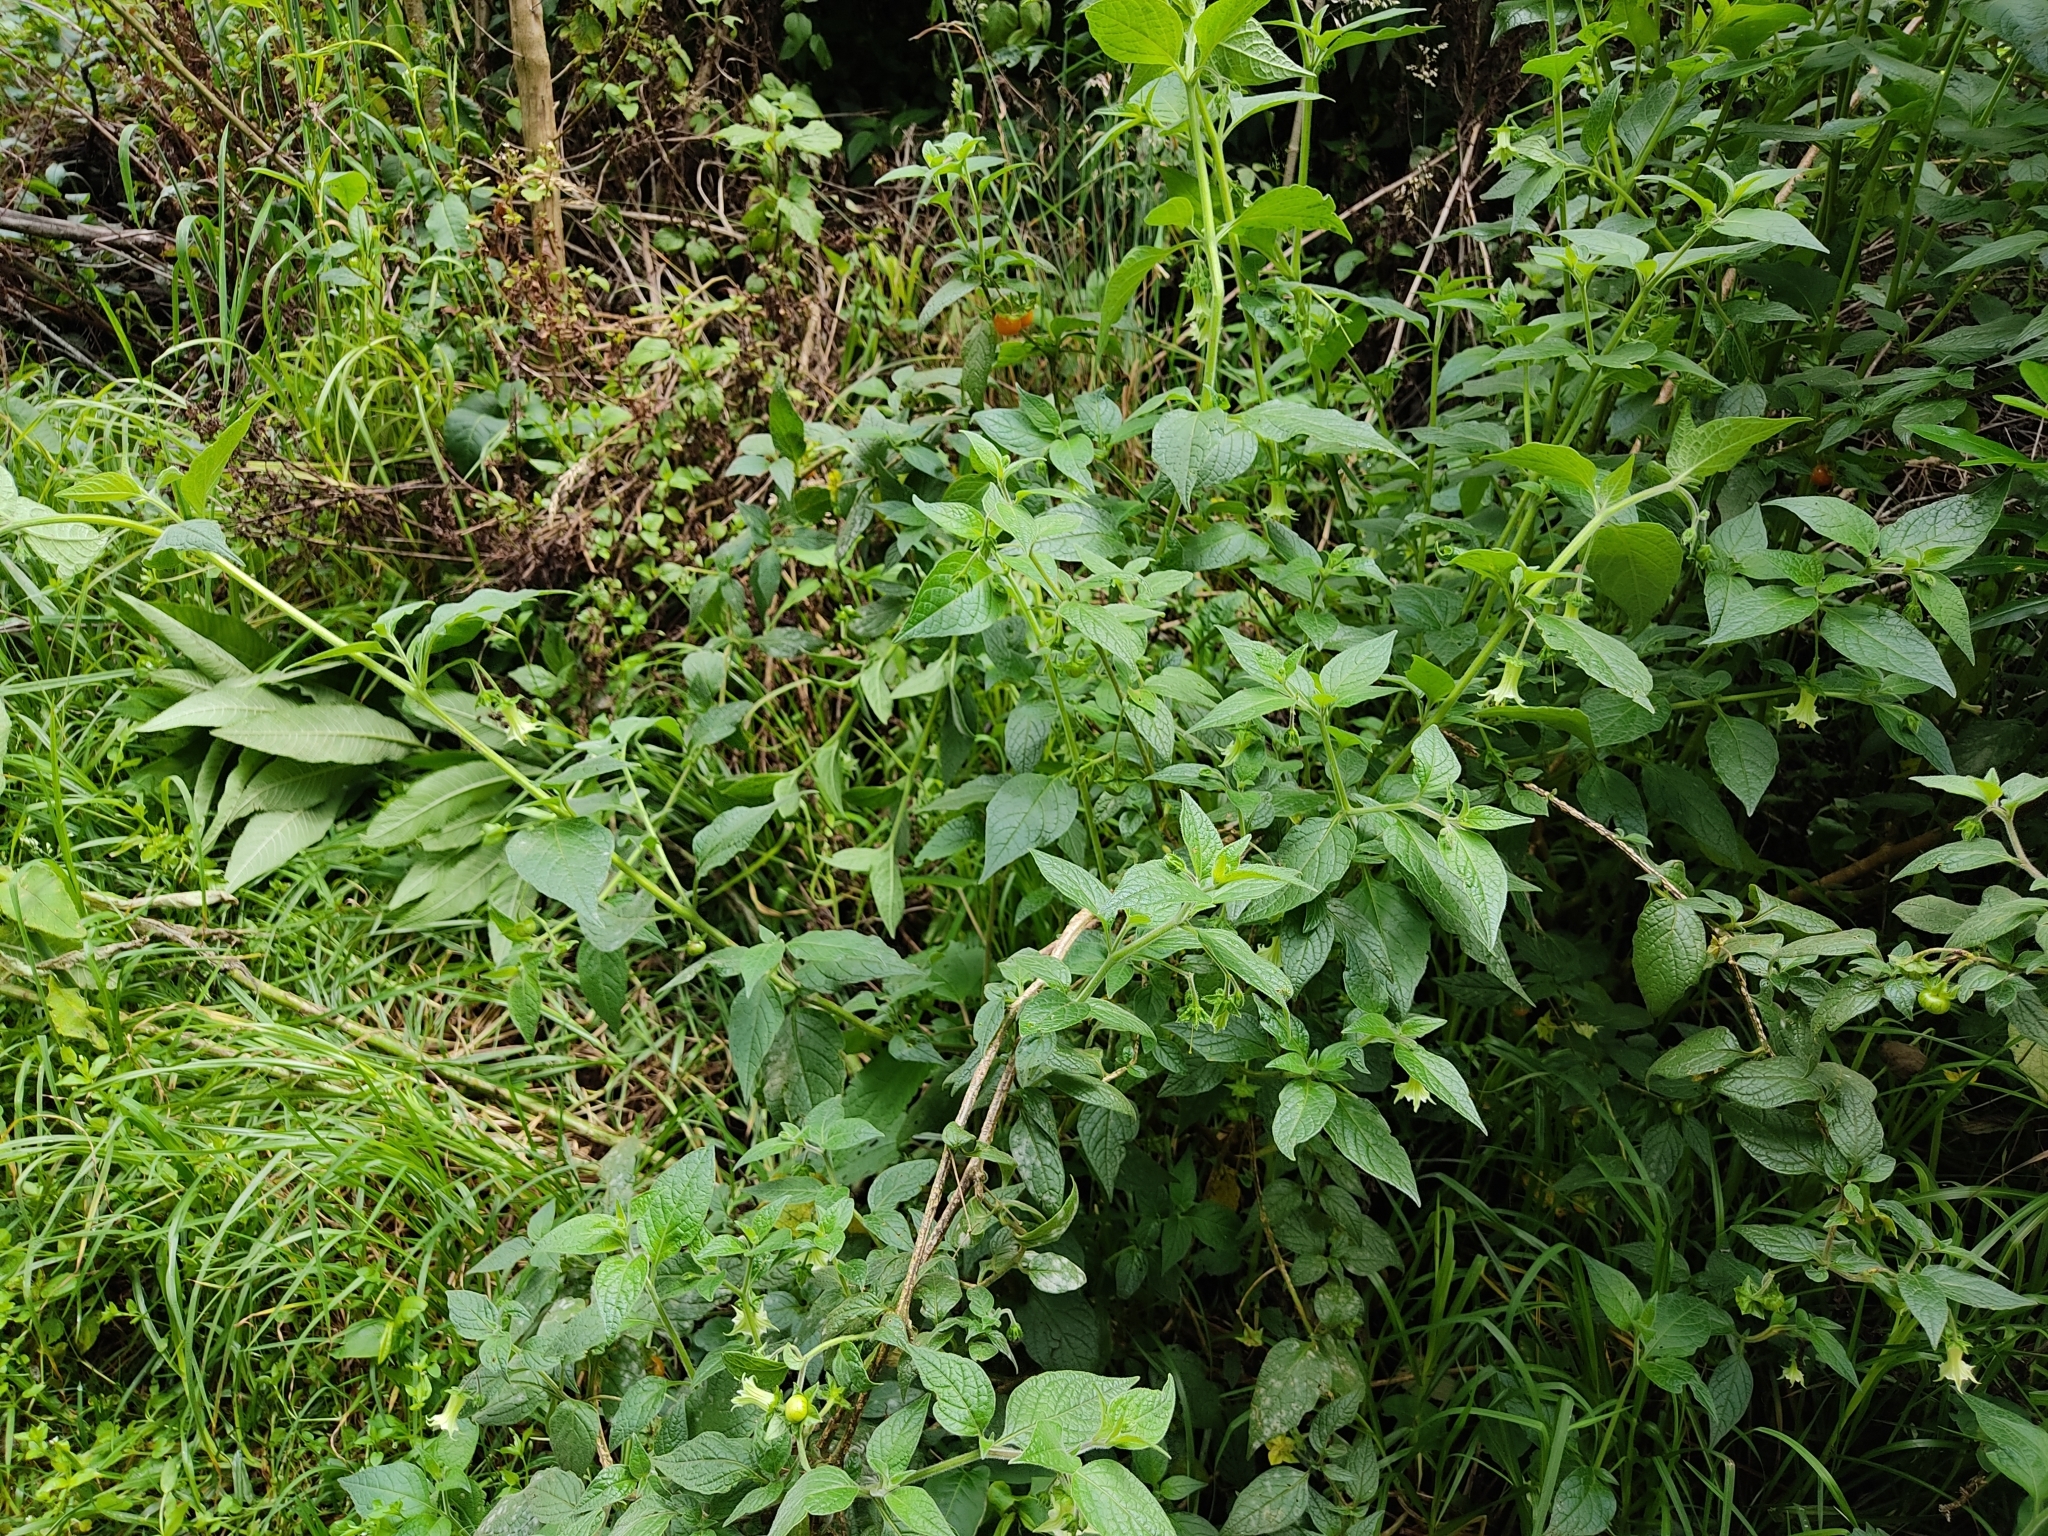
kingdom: Plantae
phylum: Tracheophyta
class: Magnoliopsida
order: Solanales
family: Solanaceae
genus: Jaltomata
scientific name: Jaltomata viridiflora
